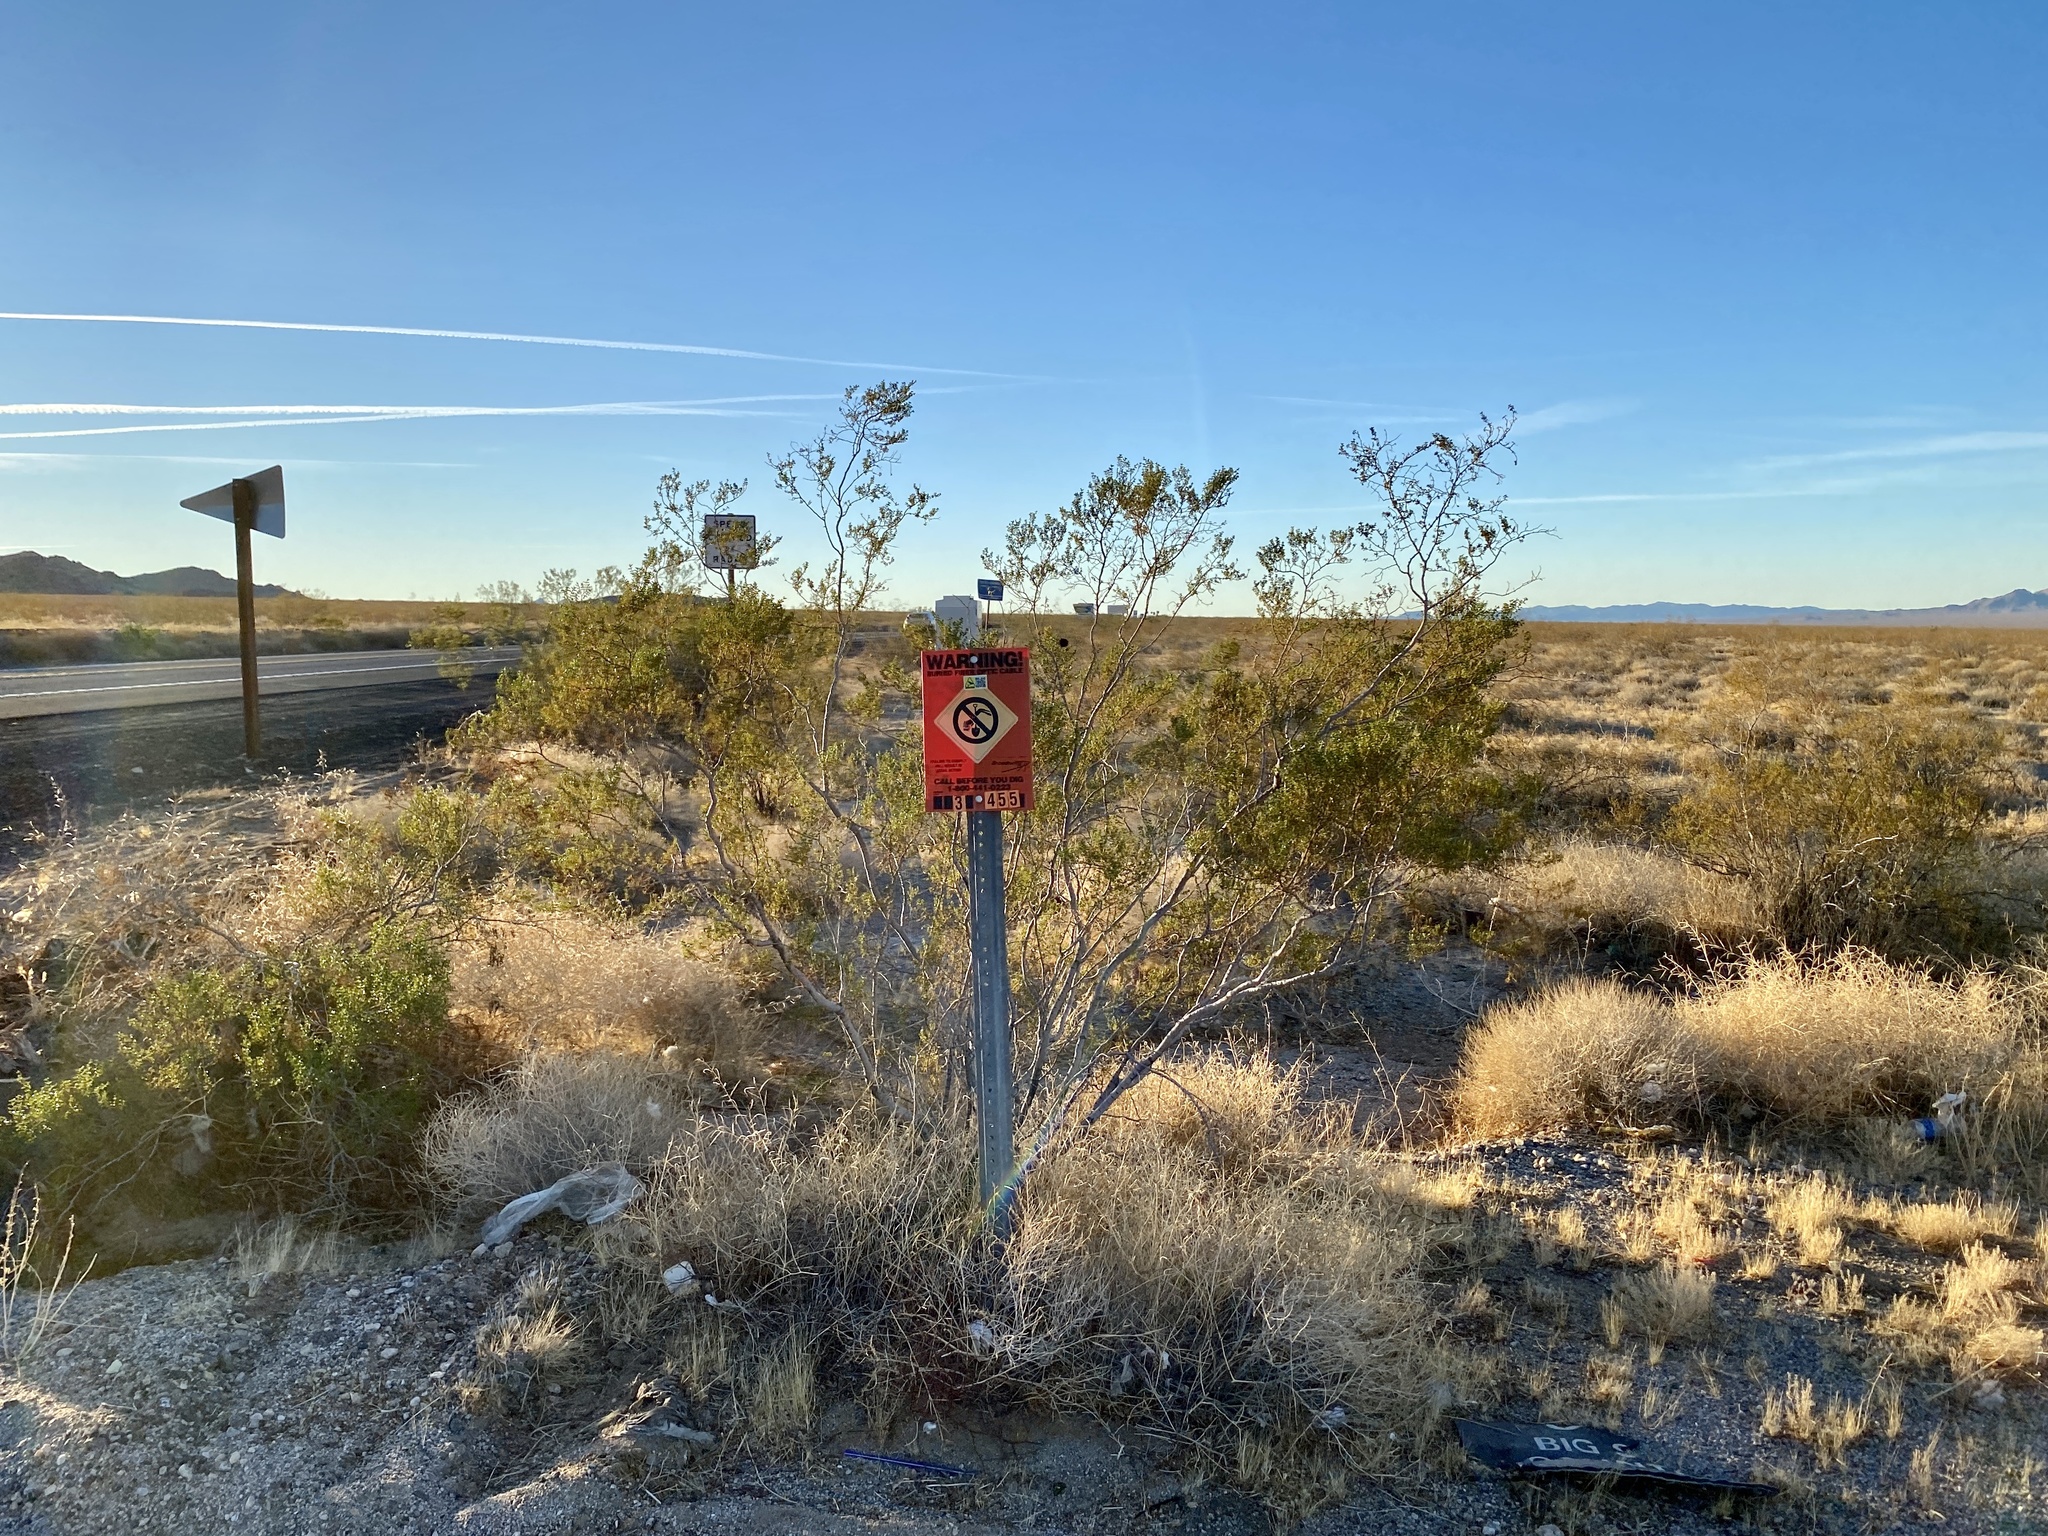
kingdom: Plantae
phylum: Tracheophyta
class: Magnoliopsida
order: Zygophyllales
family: Zygophyllaceae
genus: Larrea
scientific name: Larrea tridentata
